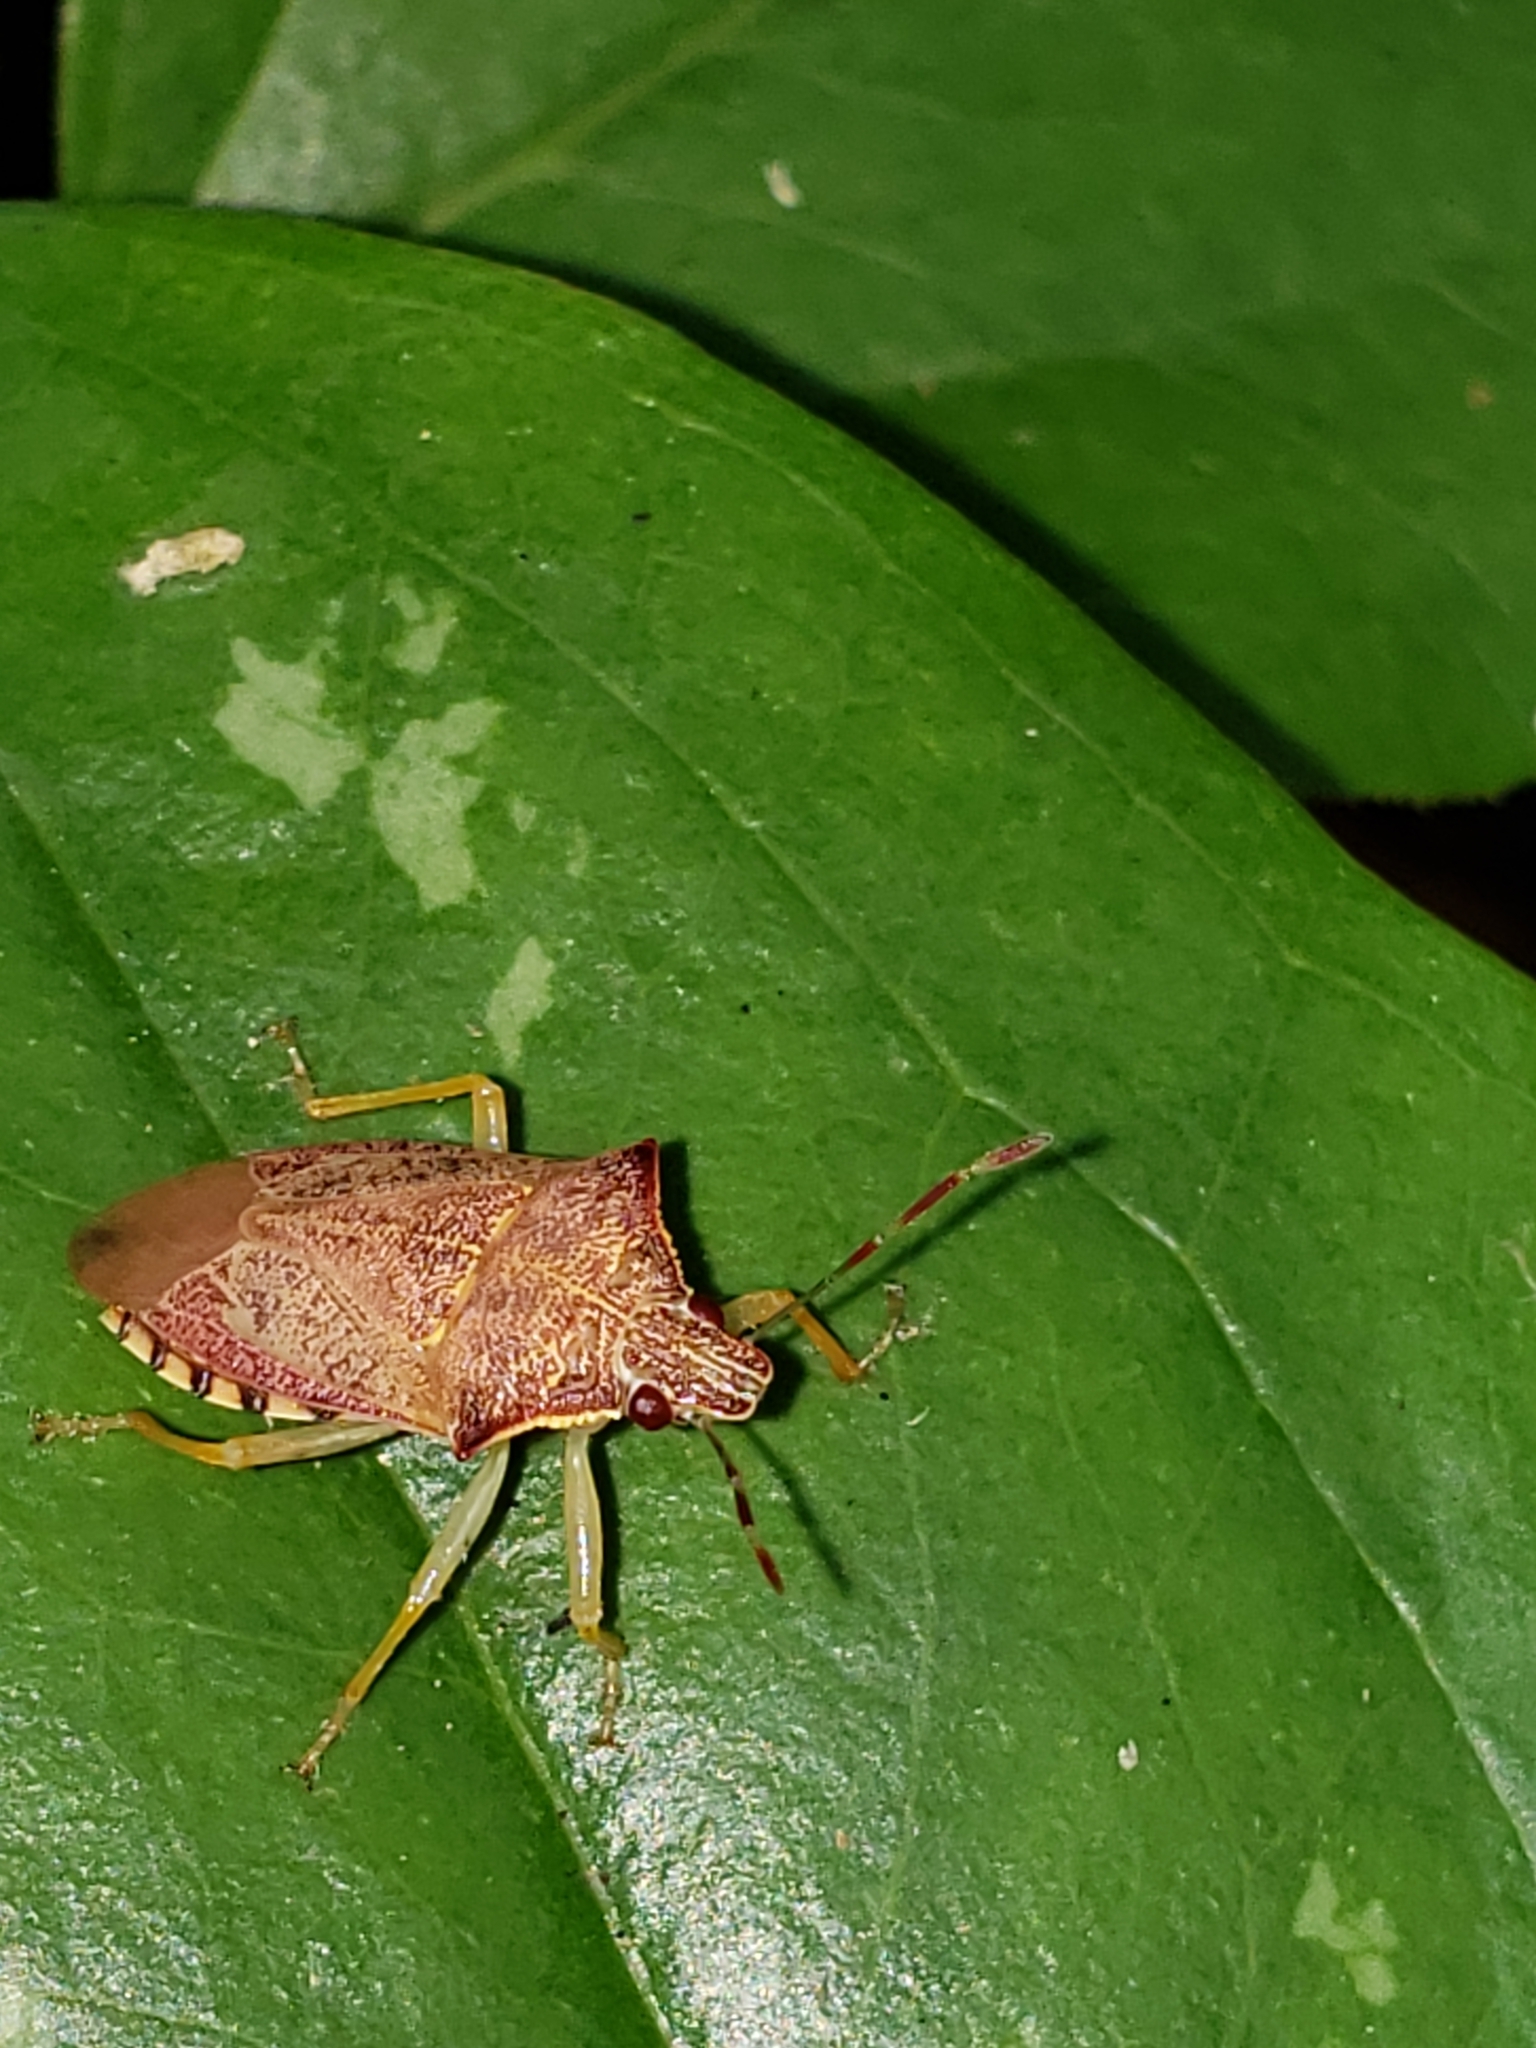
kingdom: Animalia
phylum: Arthropoda
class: Insecta
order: Hemiptera
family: Pentatomidae
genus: Podisus
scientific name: Podisus maculiventris
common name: Spined soldier bug
